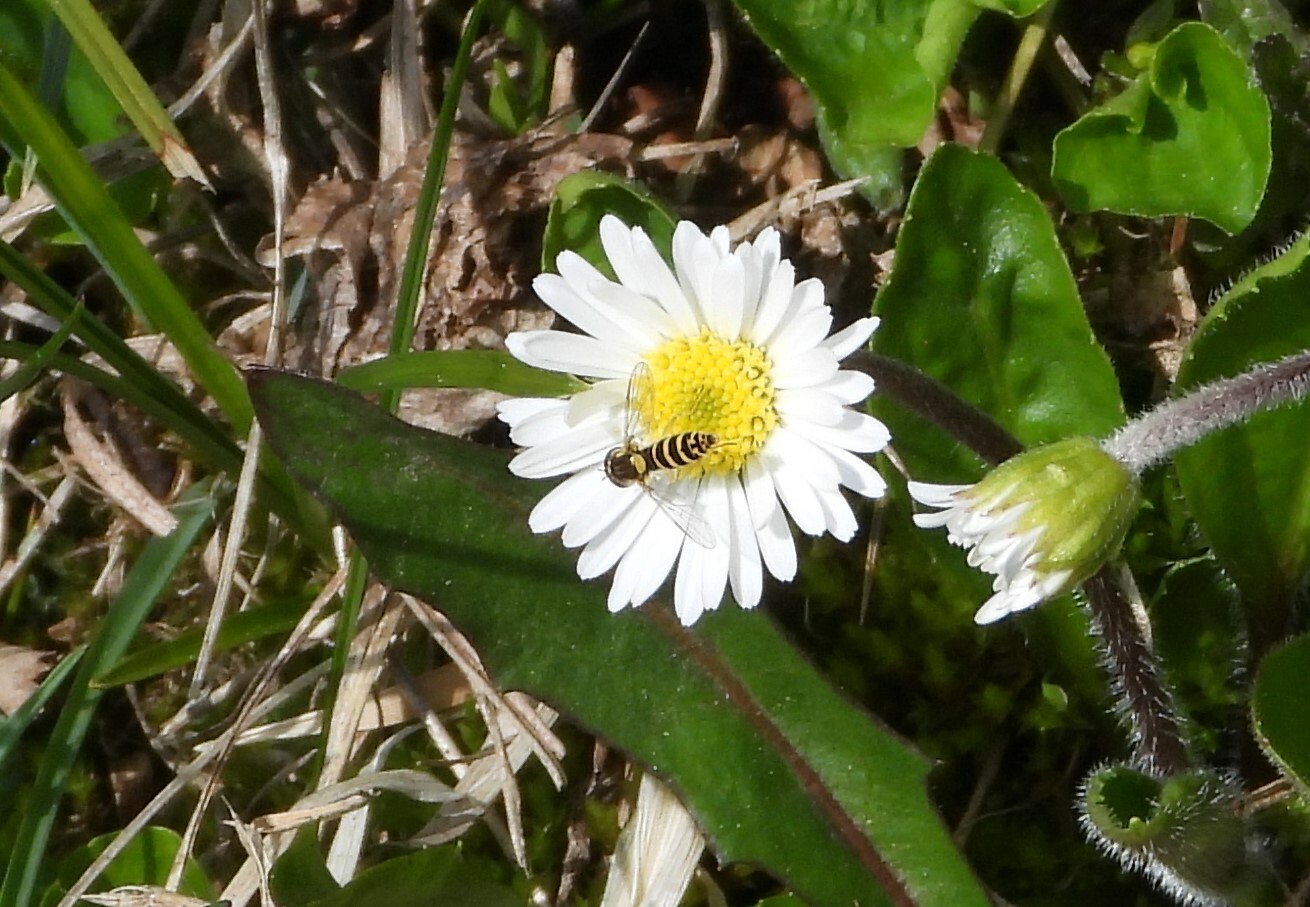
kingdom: Animalia
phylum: Arthropoda
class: Insecta
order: Diptera
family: Syrphidae
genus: Sphaerophoria
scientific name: Sphaerophoria
